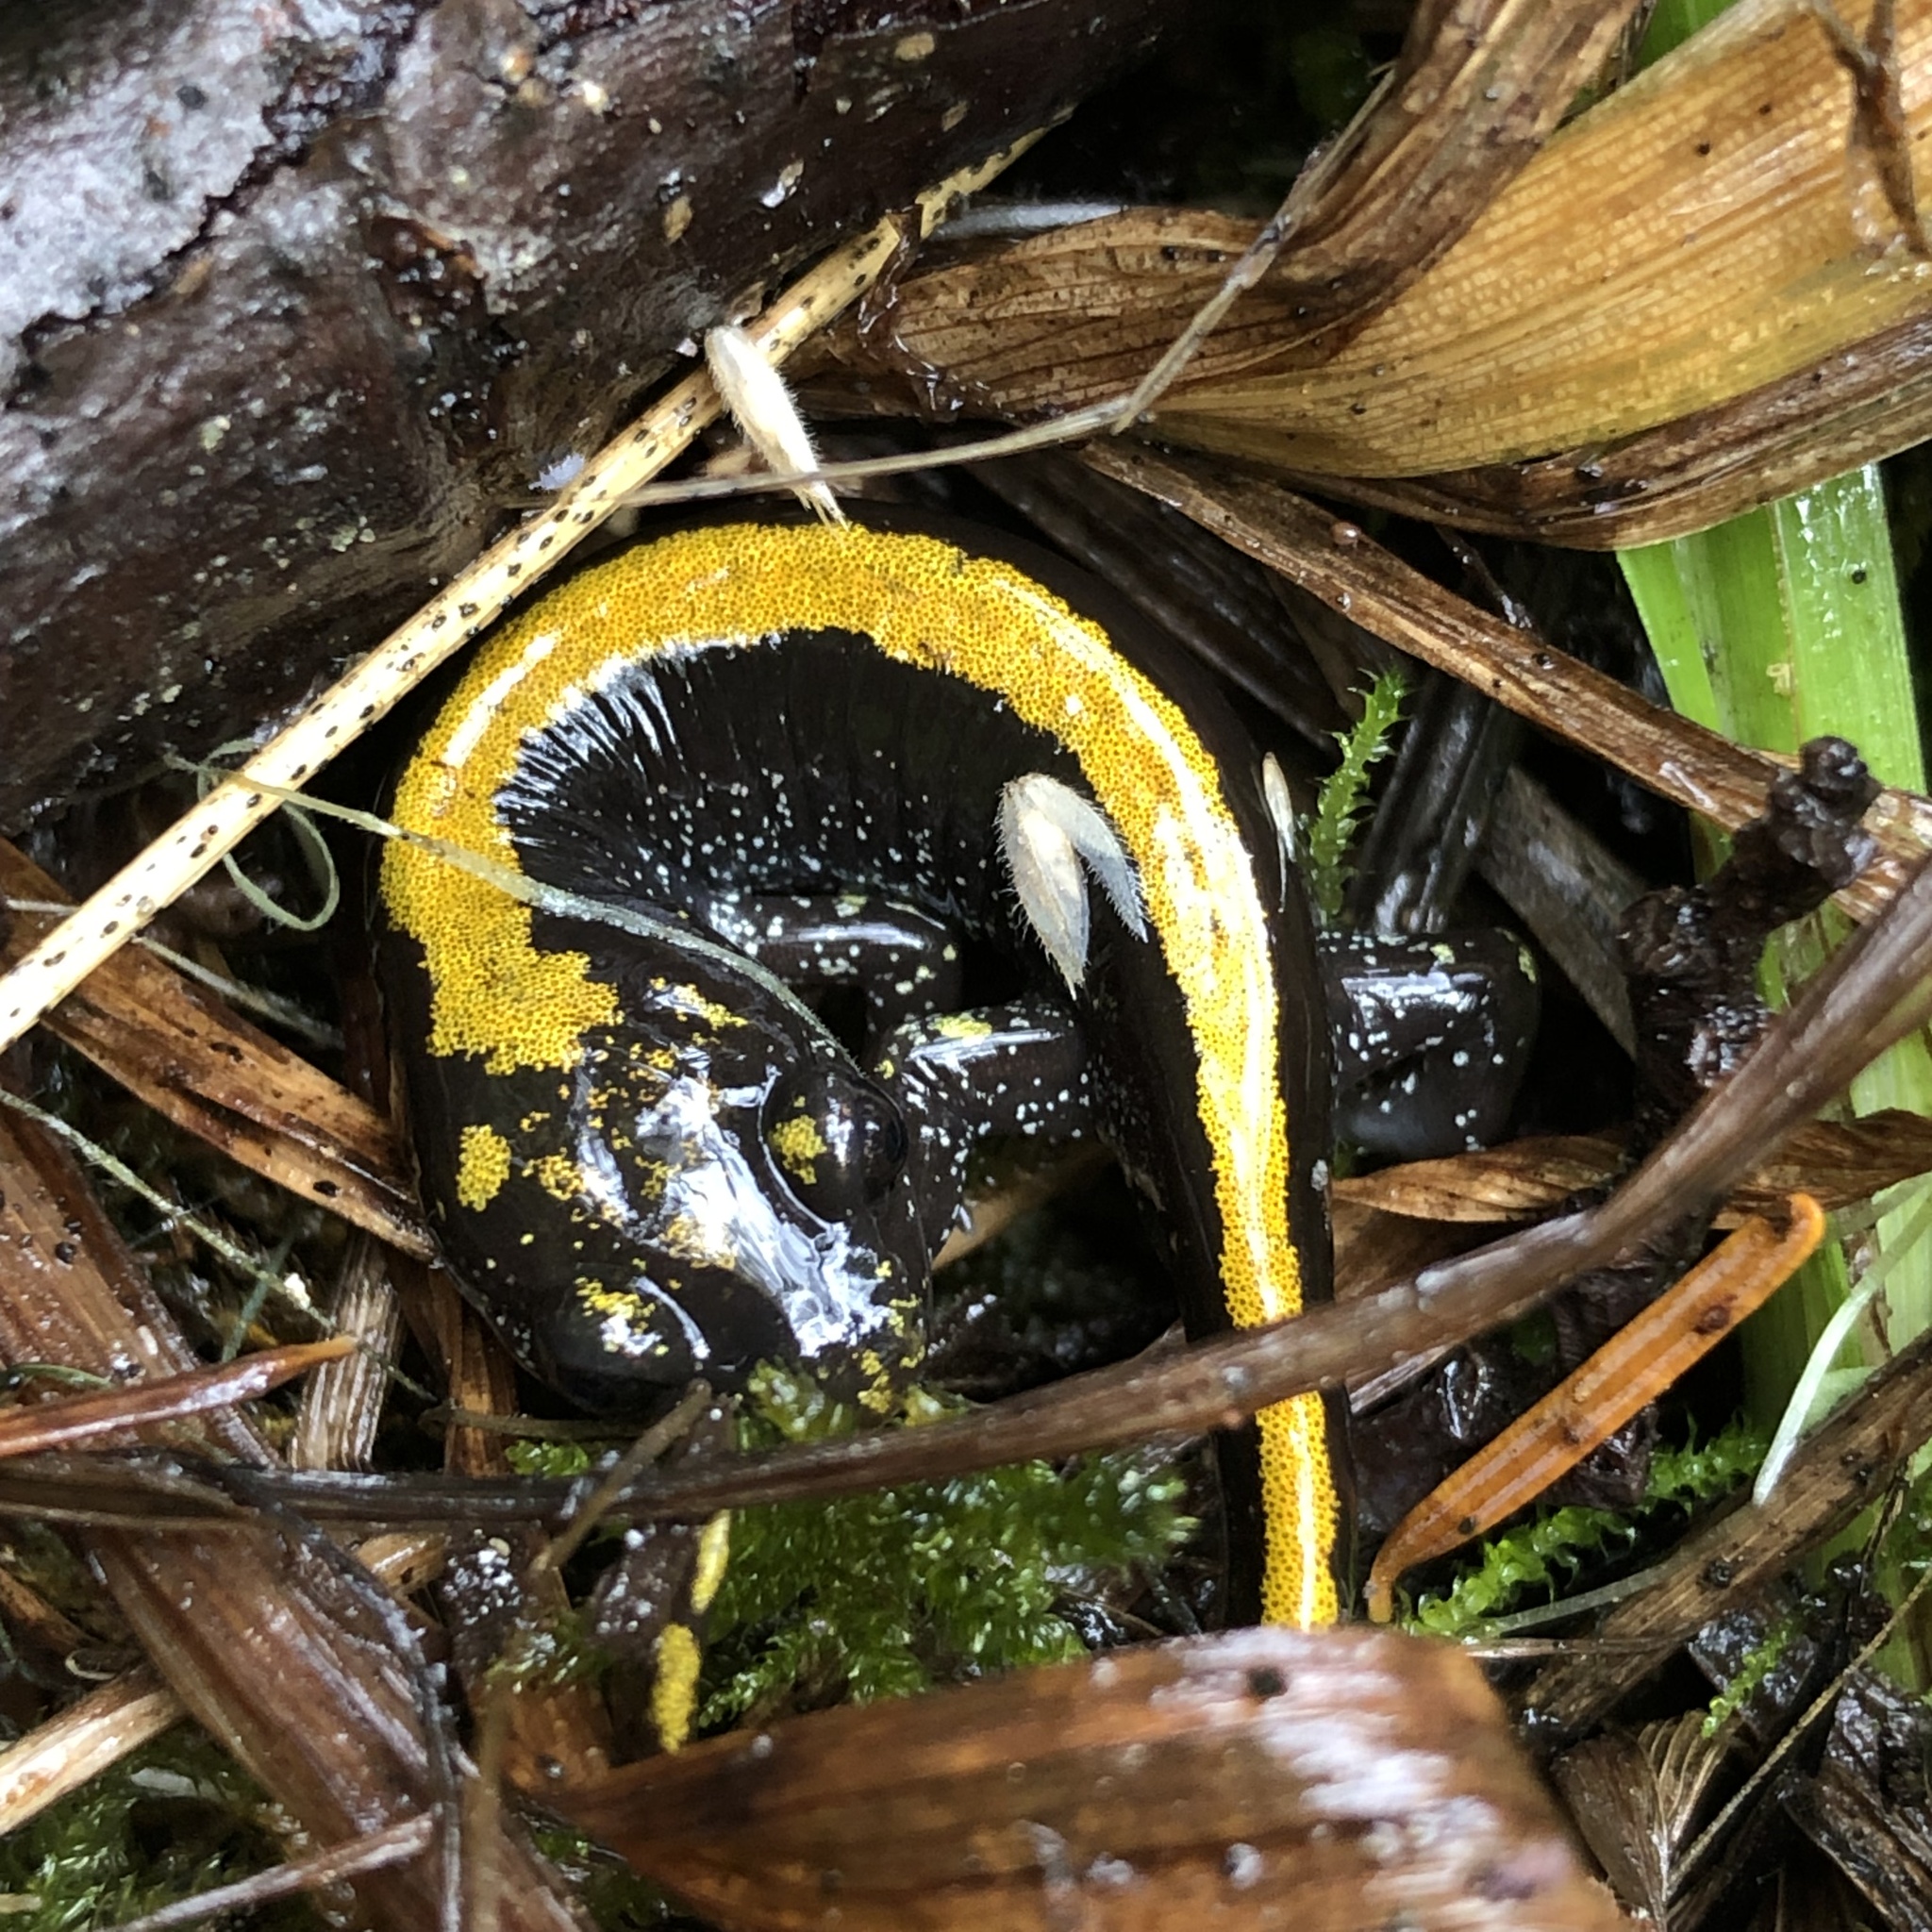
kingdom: Animalia
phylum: Chordata
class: Amphibia
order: Caudata
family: Ambystomatidae
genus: Ambystoma
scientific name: Ambystoma macrodactylum
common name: Long-toed salamander
